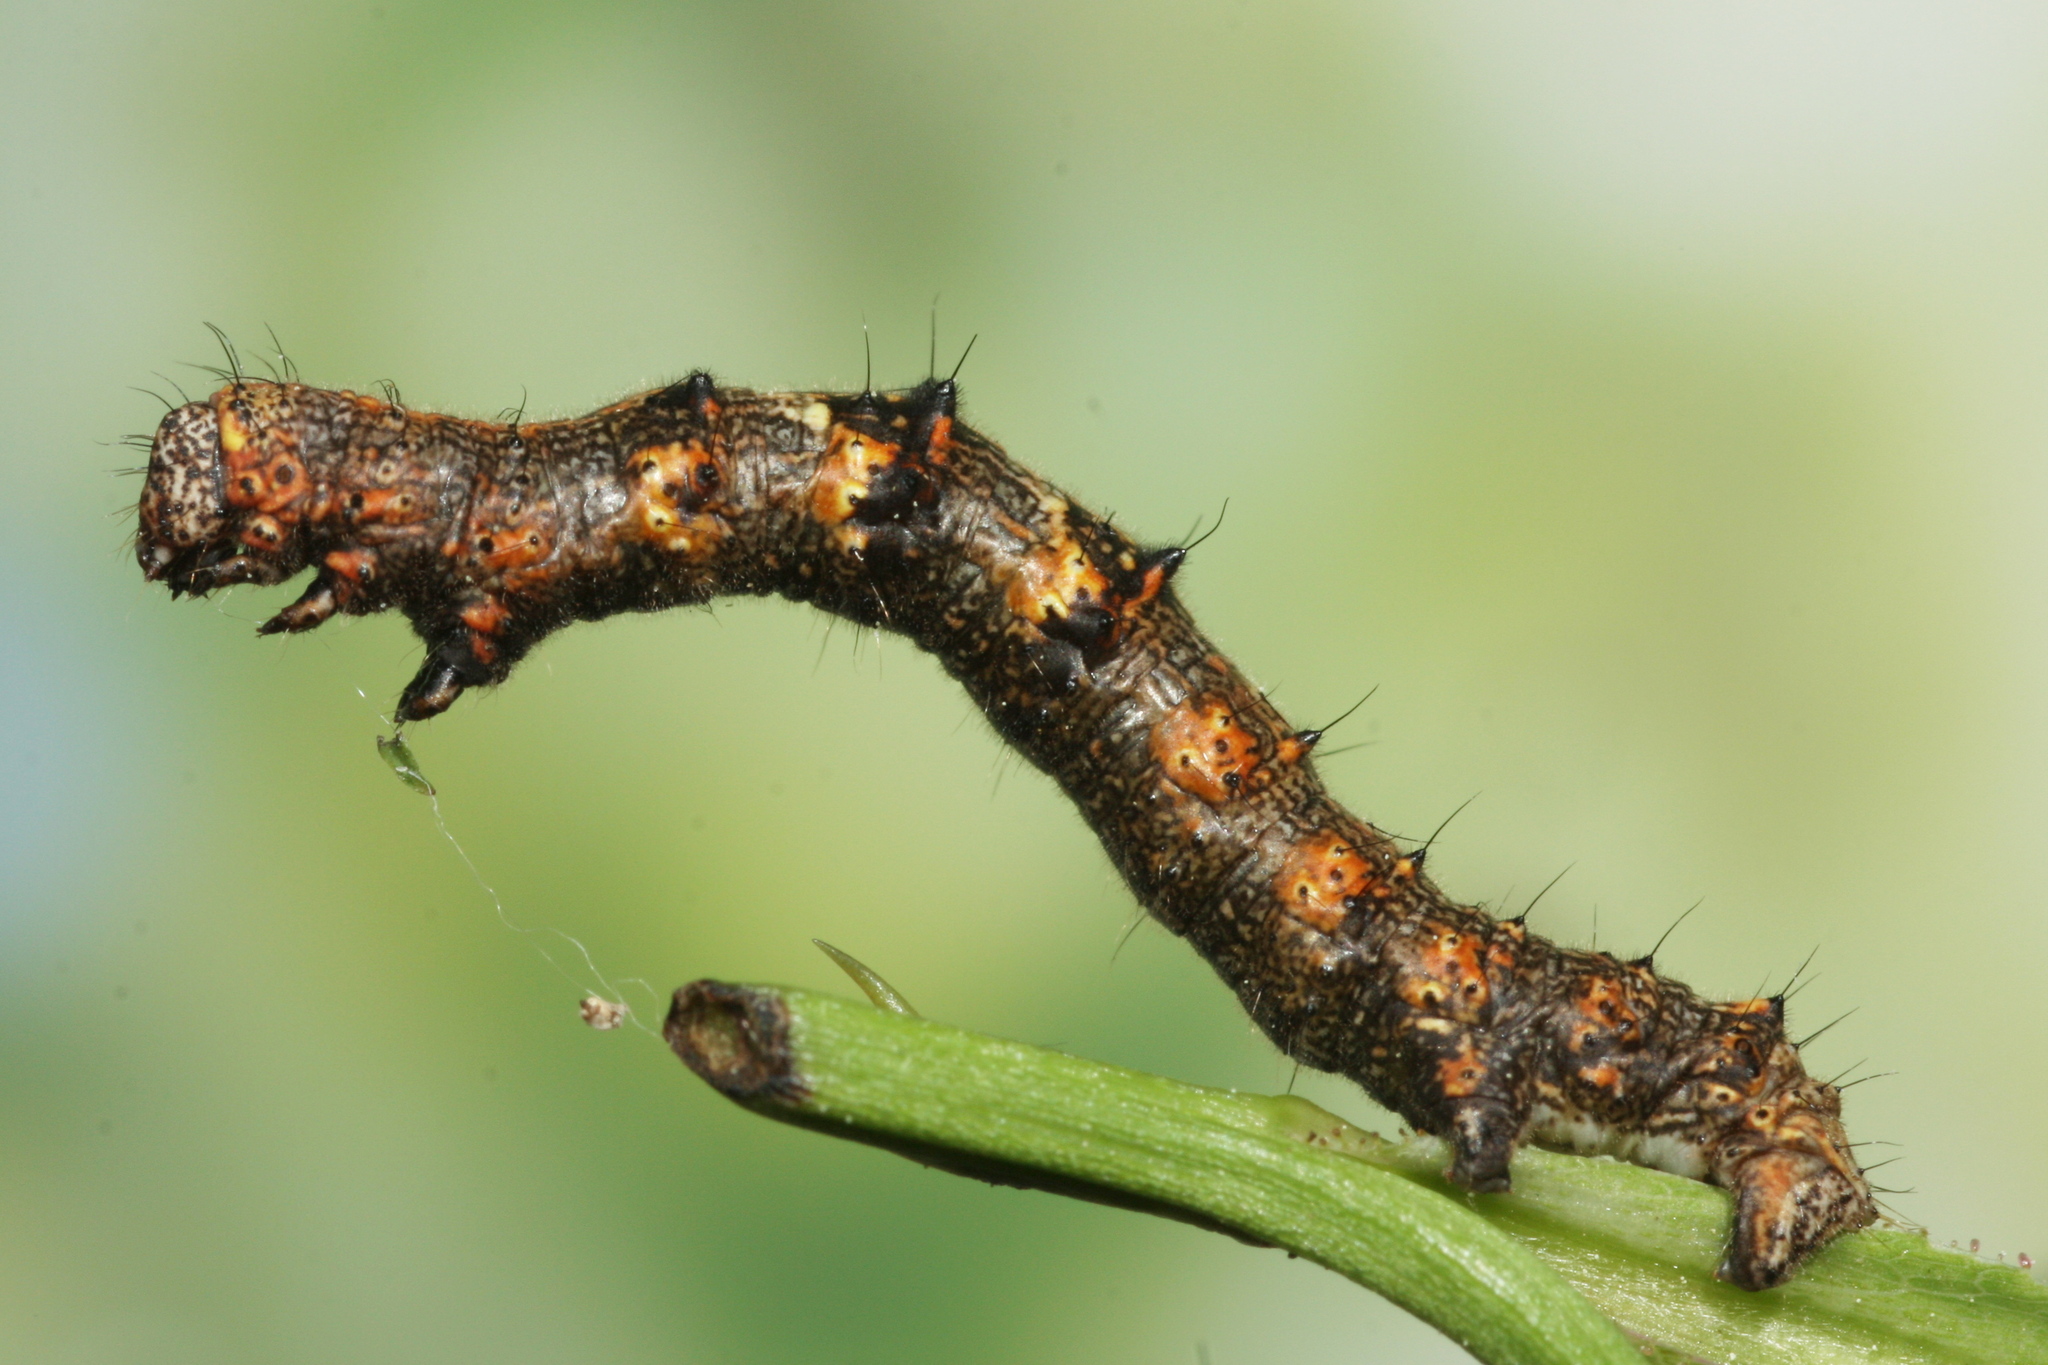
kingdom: Animalia
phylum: Arthropoda
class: Insecta
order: Lepidoptera
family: Geometridae
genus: Phigalia
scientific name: Phigalia pilosaria
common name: Pale brindled beauty
